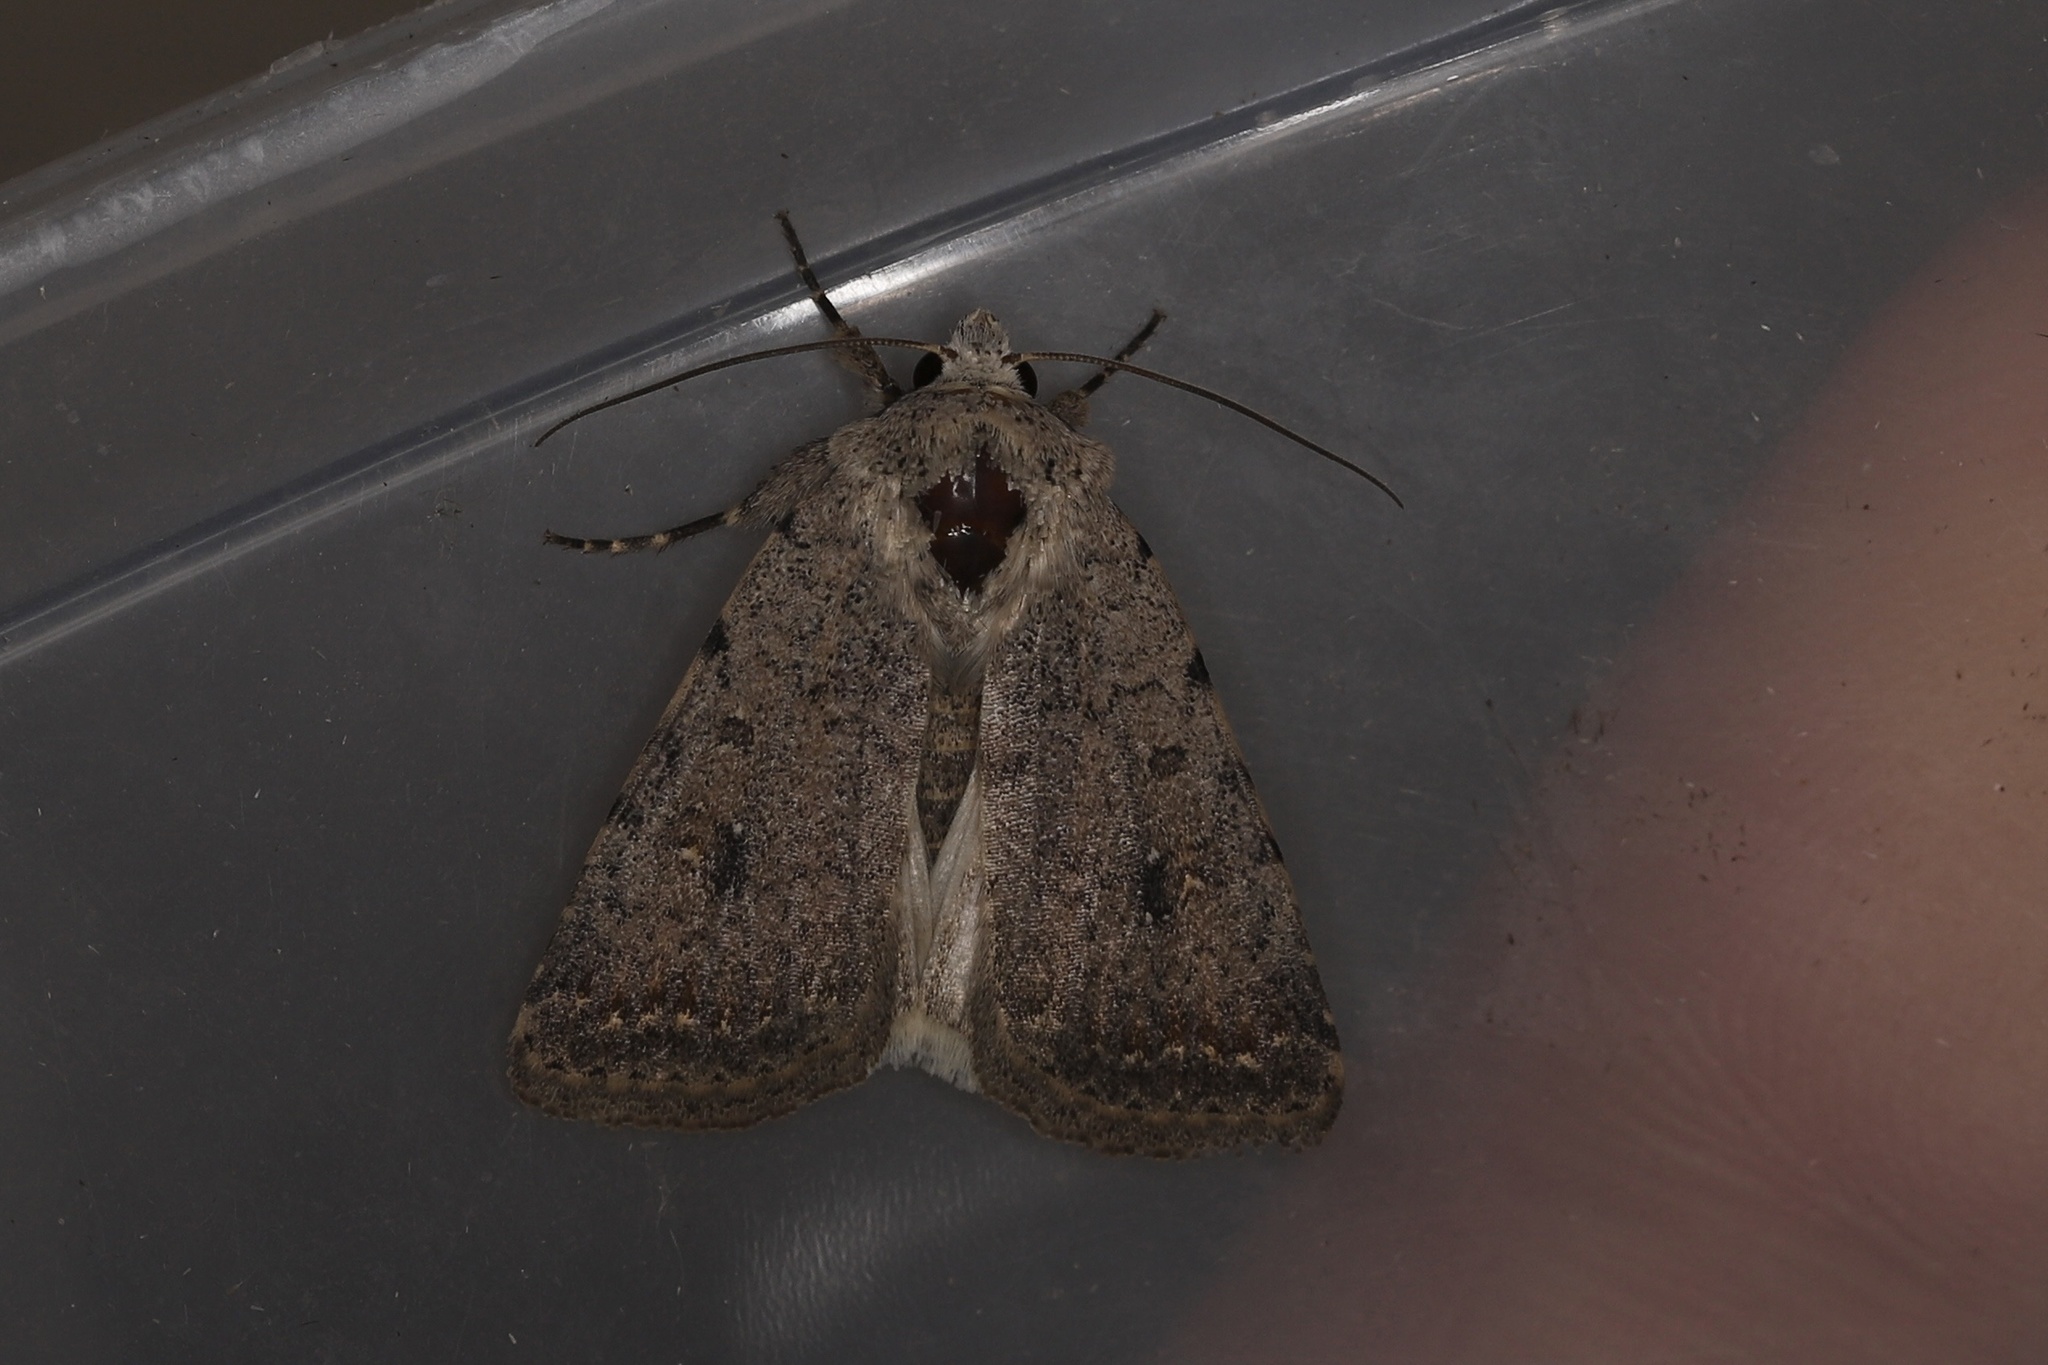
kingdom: Animalia
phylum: Arthropoda
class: Insecta
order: Lepidoptera
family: Noctuidae
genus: Caradrina
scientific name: Caradrina clavipalpis
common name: Pale mottled willow
